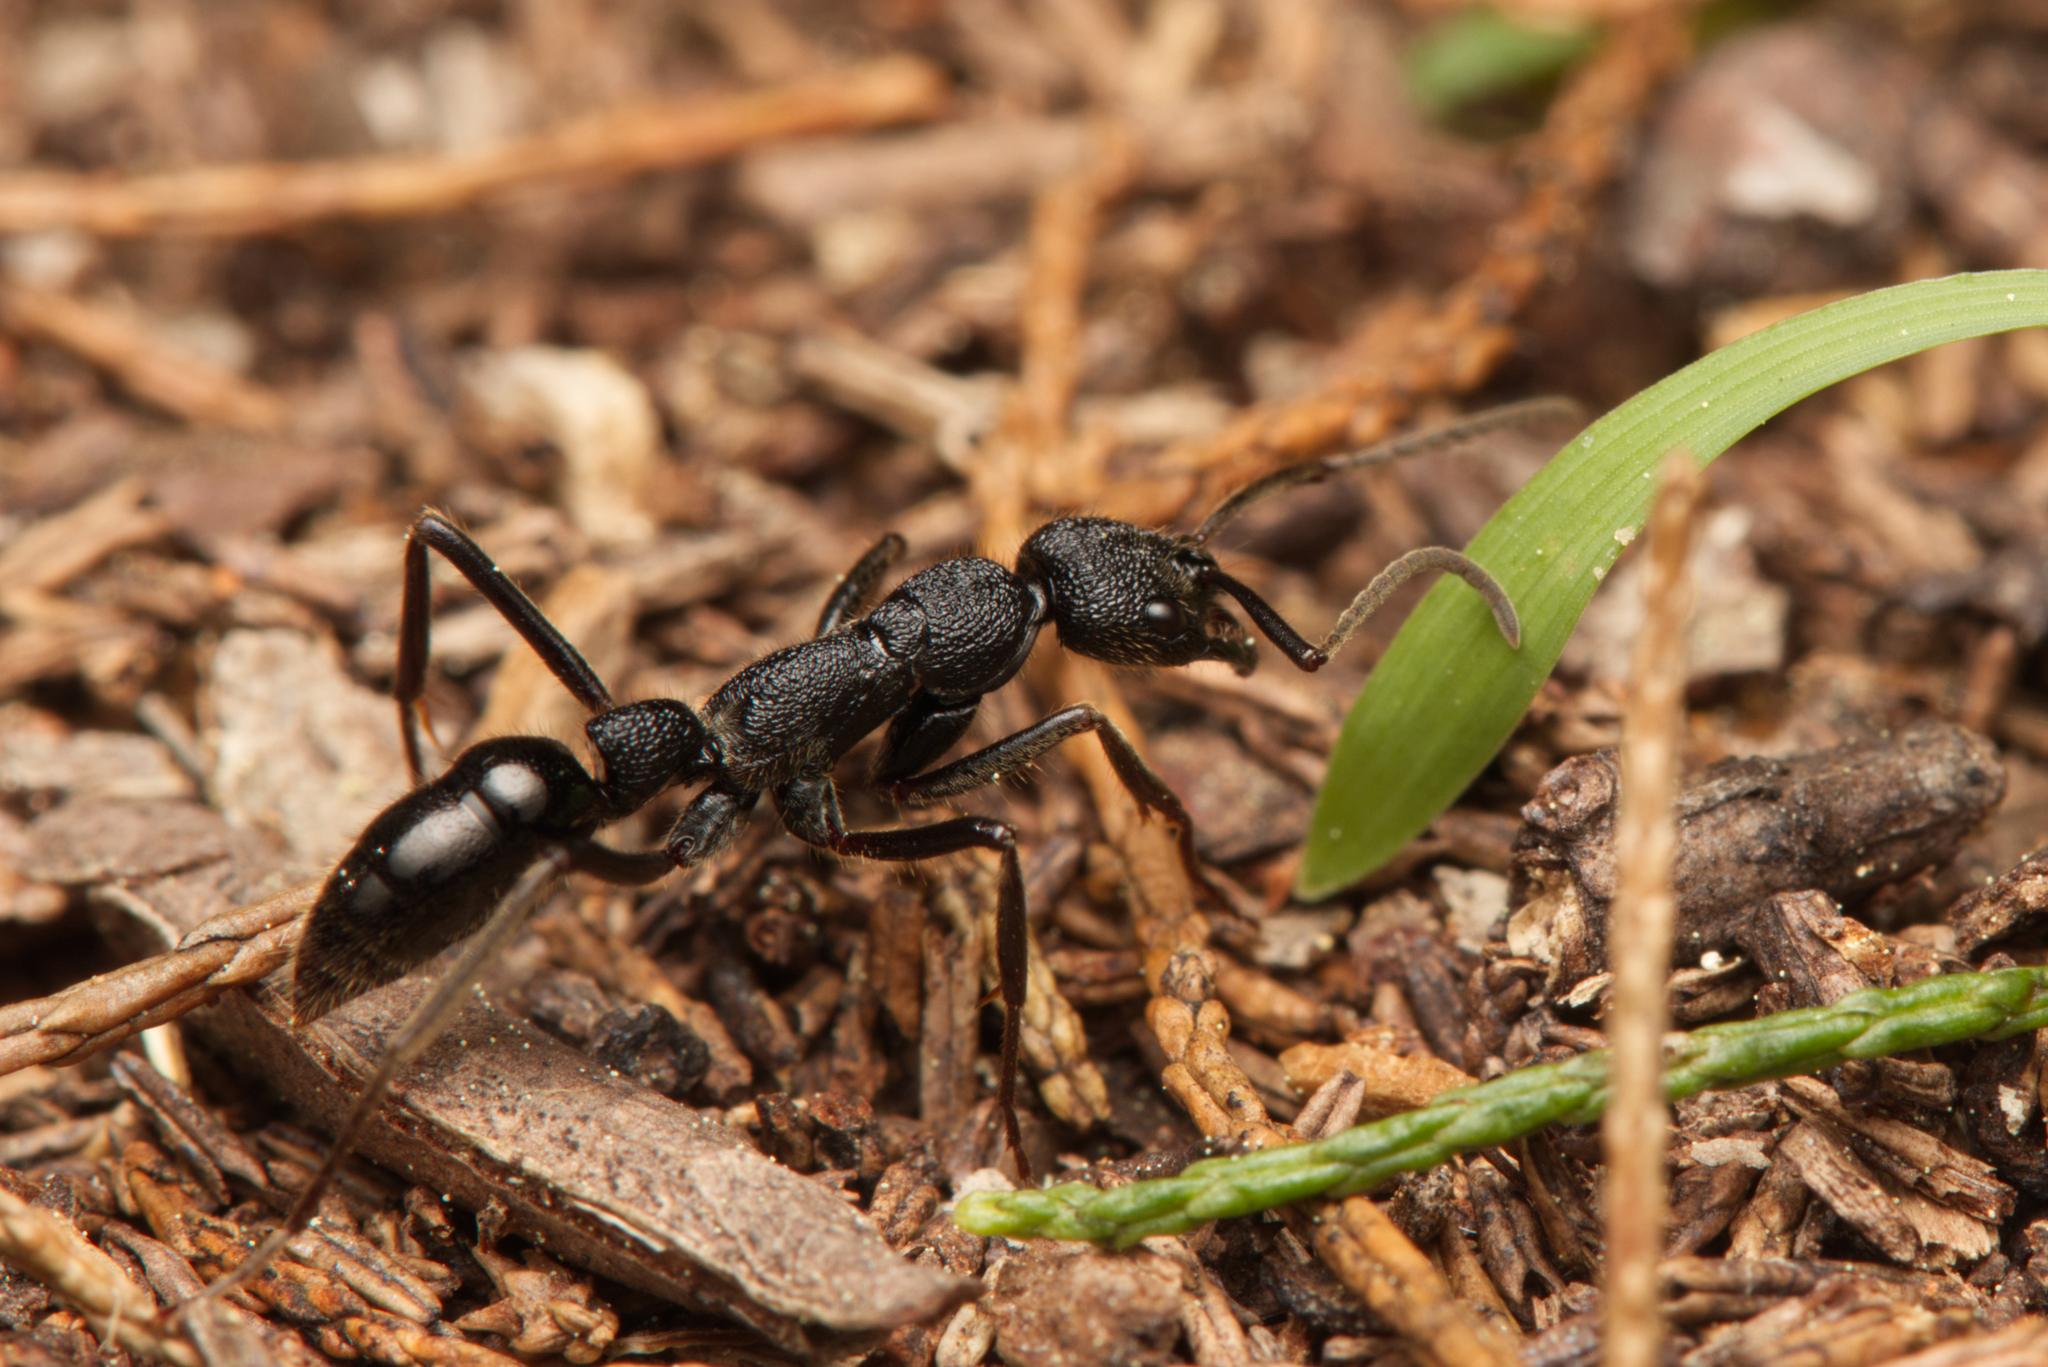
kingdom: Animalia
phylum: Arthropoda
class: Insecta
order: Hymenoptera
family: Formicidae
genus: Leptogenys
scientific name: Leptogenys sjostedti
